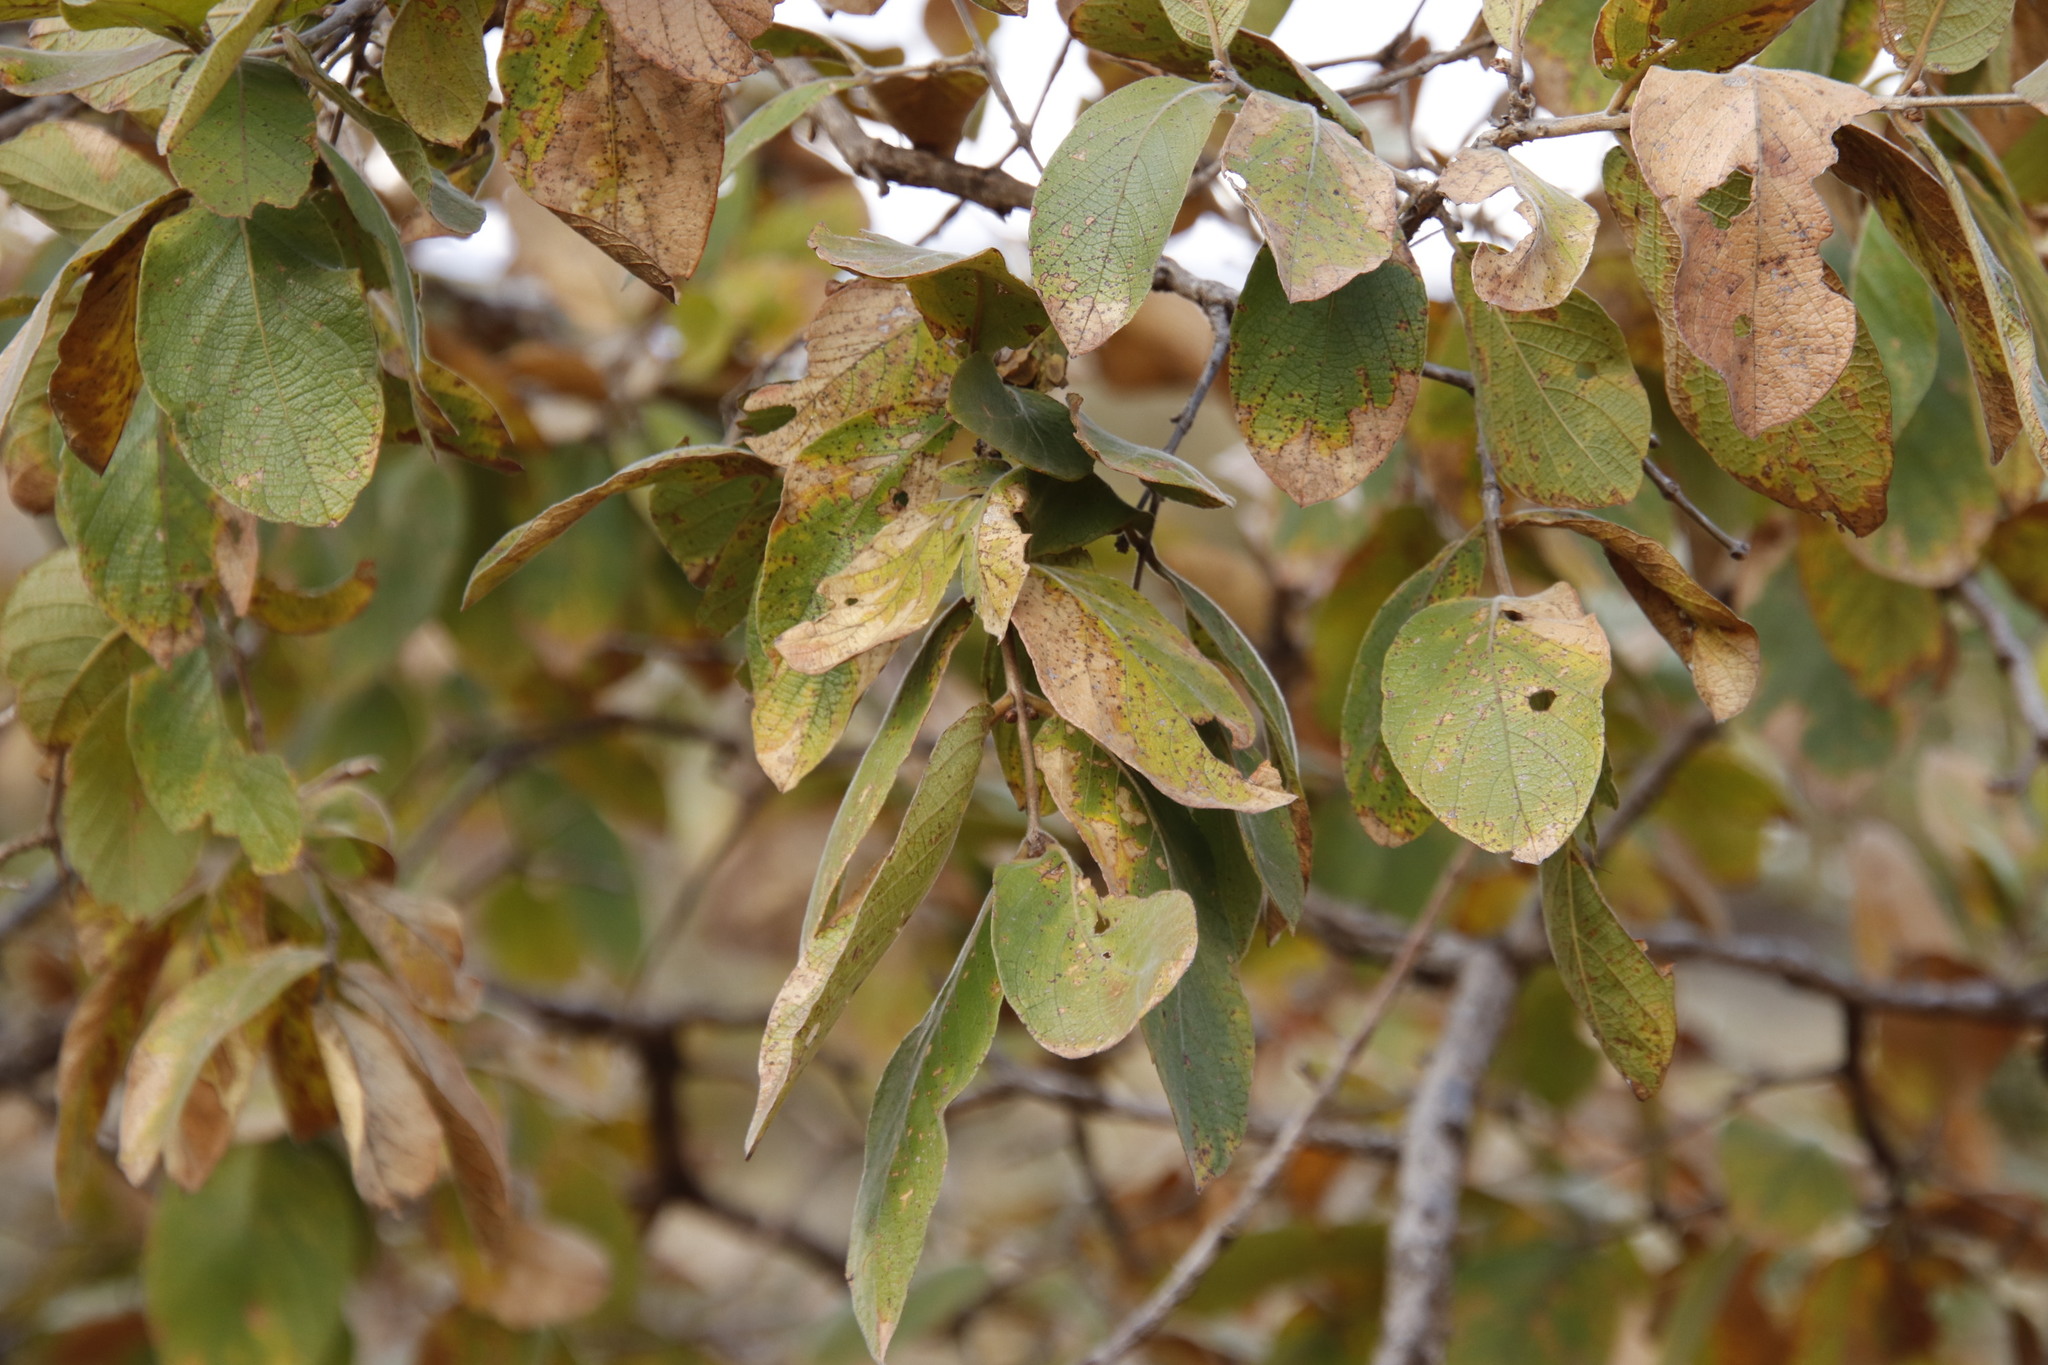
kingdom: Plantae
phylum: Tracheophyta
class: Magnoliopsida
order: Myrtales
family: Combretaceae
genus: Combretum
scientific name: Combretum molle
